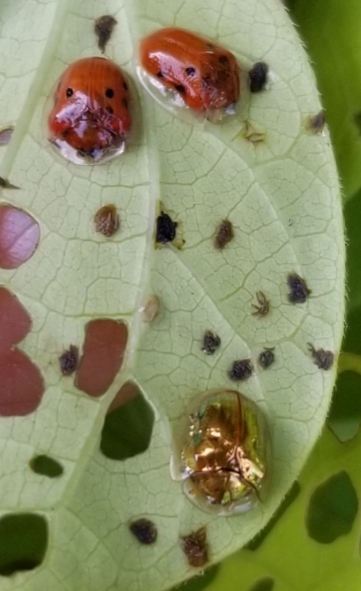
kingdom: Animalia
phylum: Arthropoda
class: Insecta
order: Coleoptera
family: Chrysomelidae
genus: Charidotella
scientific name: Charidotella sexpunctata
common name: Golden tortoise beetle
